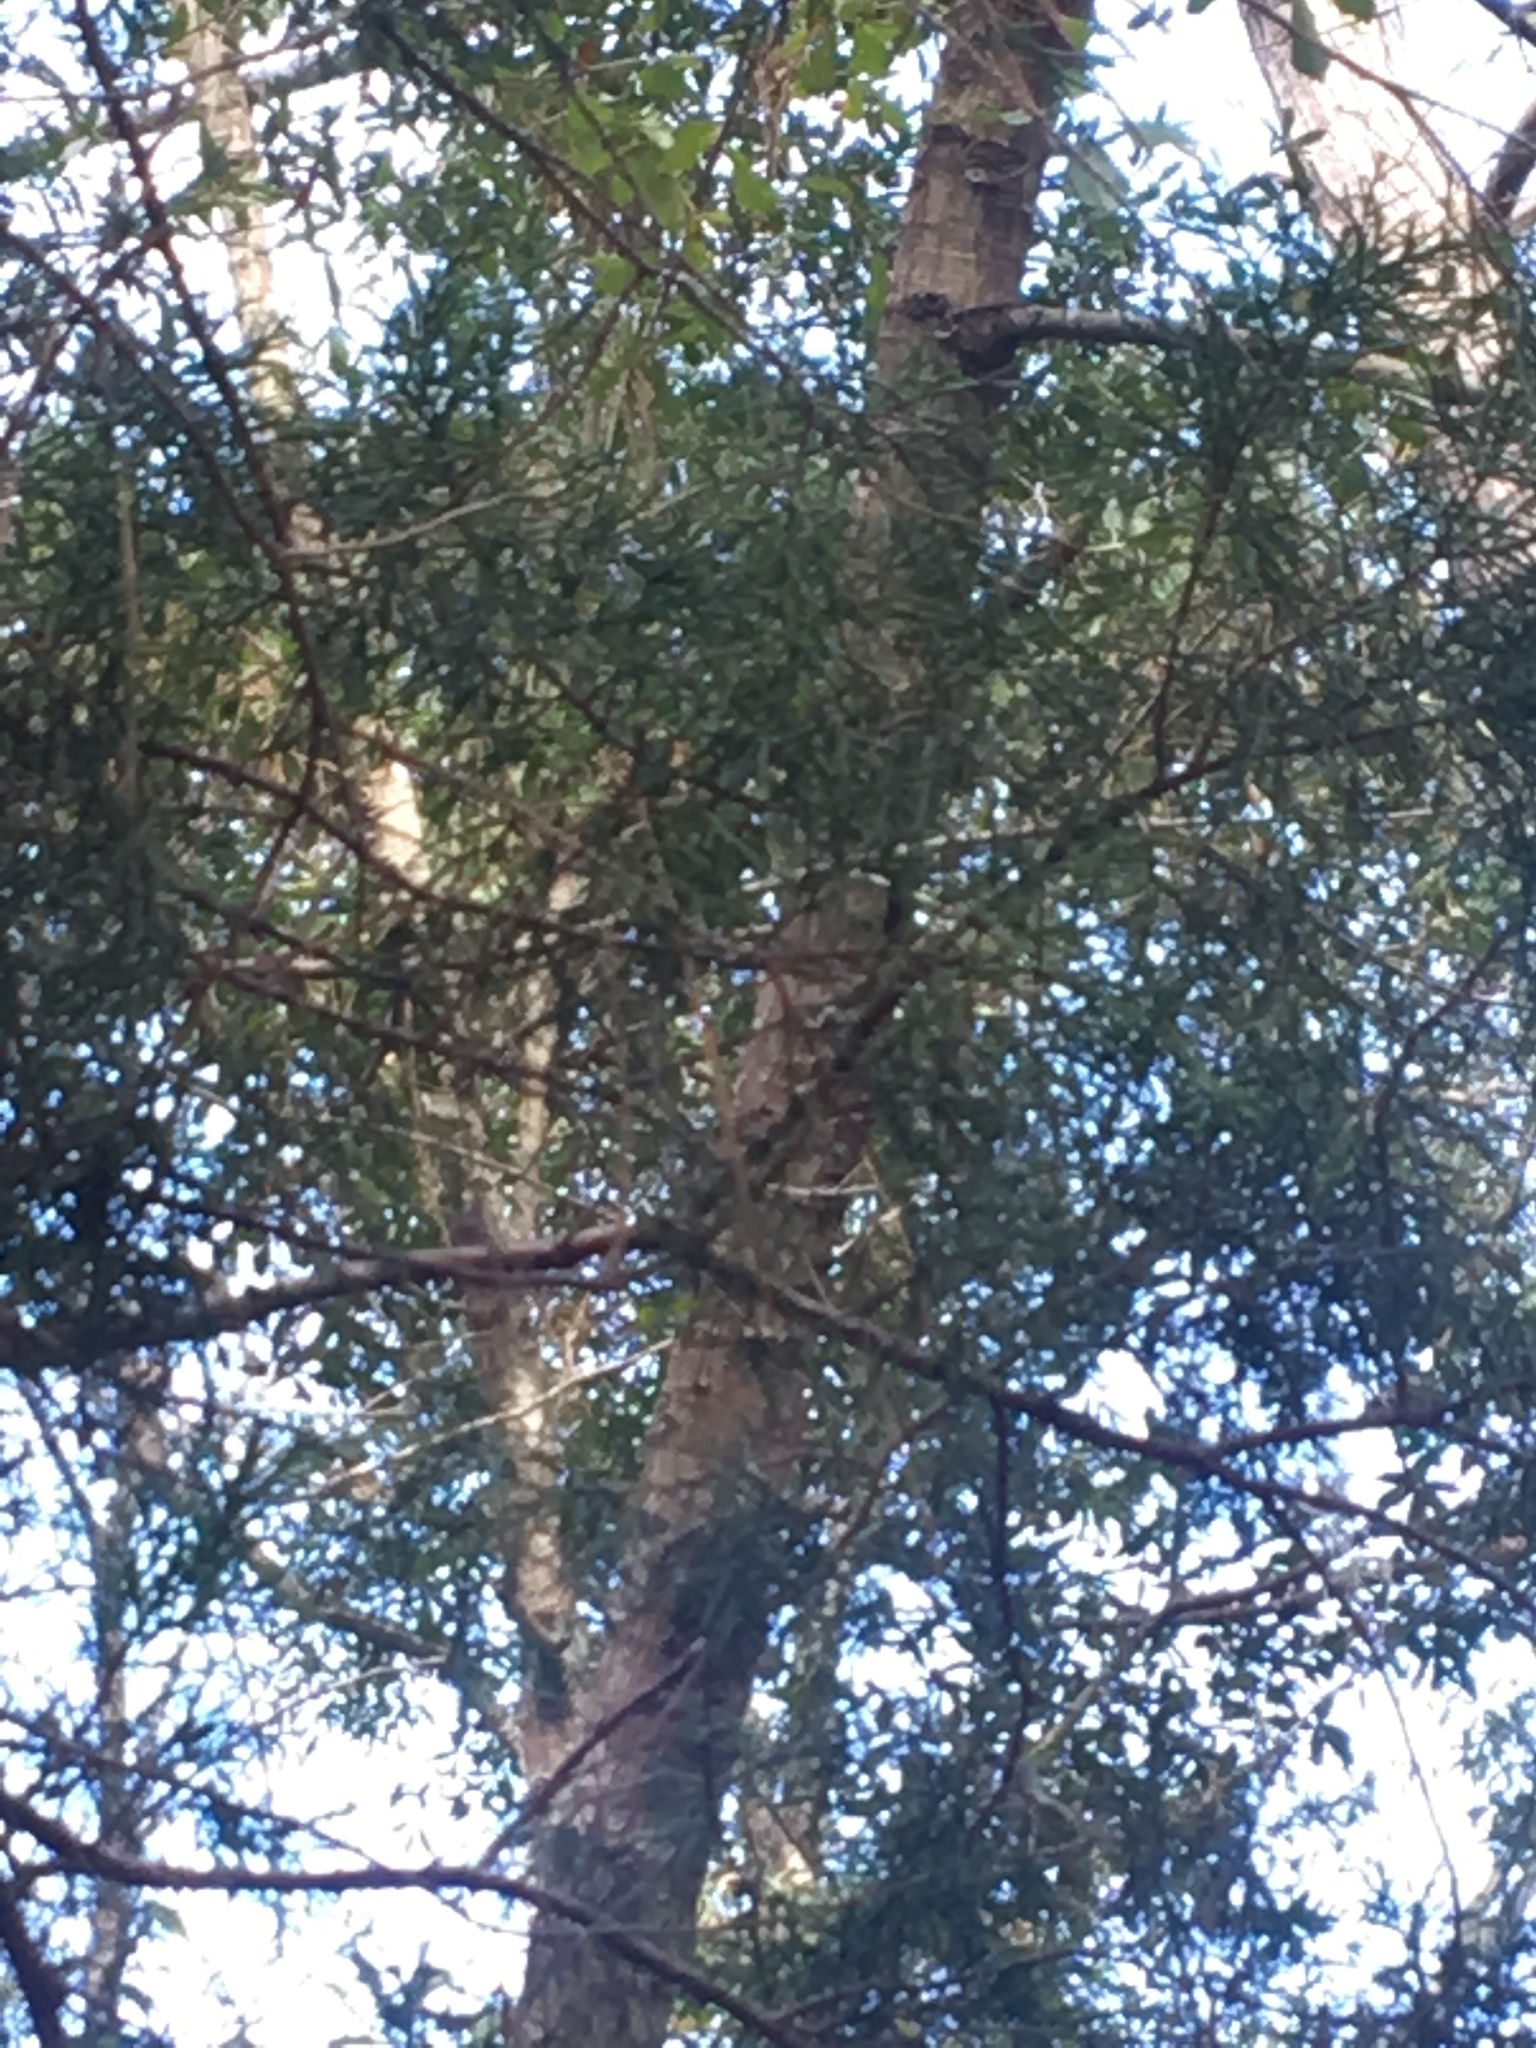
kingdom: Plantae
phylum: Tracheophyta
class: Pinopsida
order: Pinales
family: Cupressaceae
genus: Juniperus
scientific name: Juniperus virginiana
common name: Red juniper
